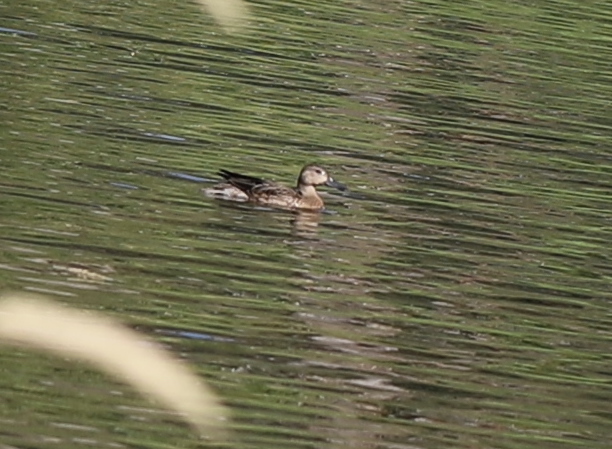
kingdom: Animalia
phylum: Chordata
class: Aves
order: Anseriformes
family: Anatidae
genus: Spatula
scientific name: Spatula cyanoptera
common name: Cinnamon teal
